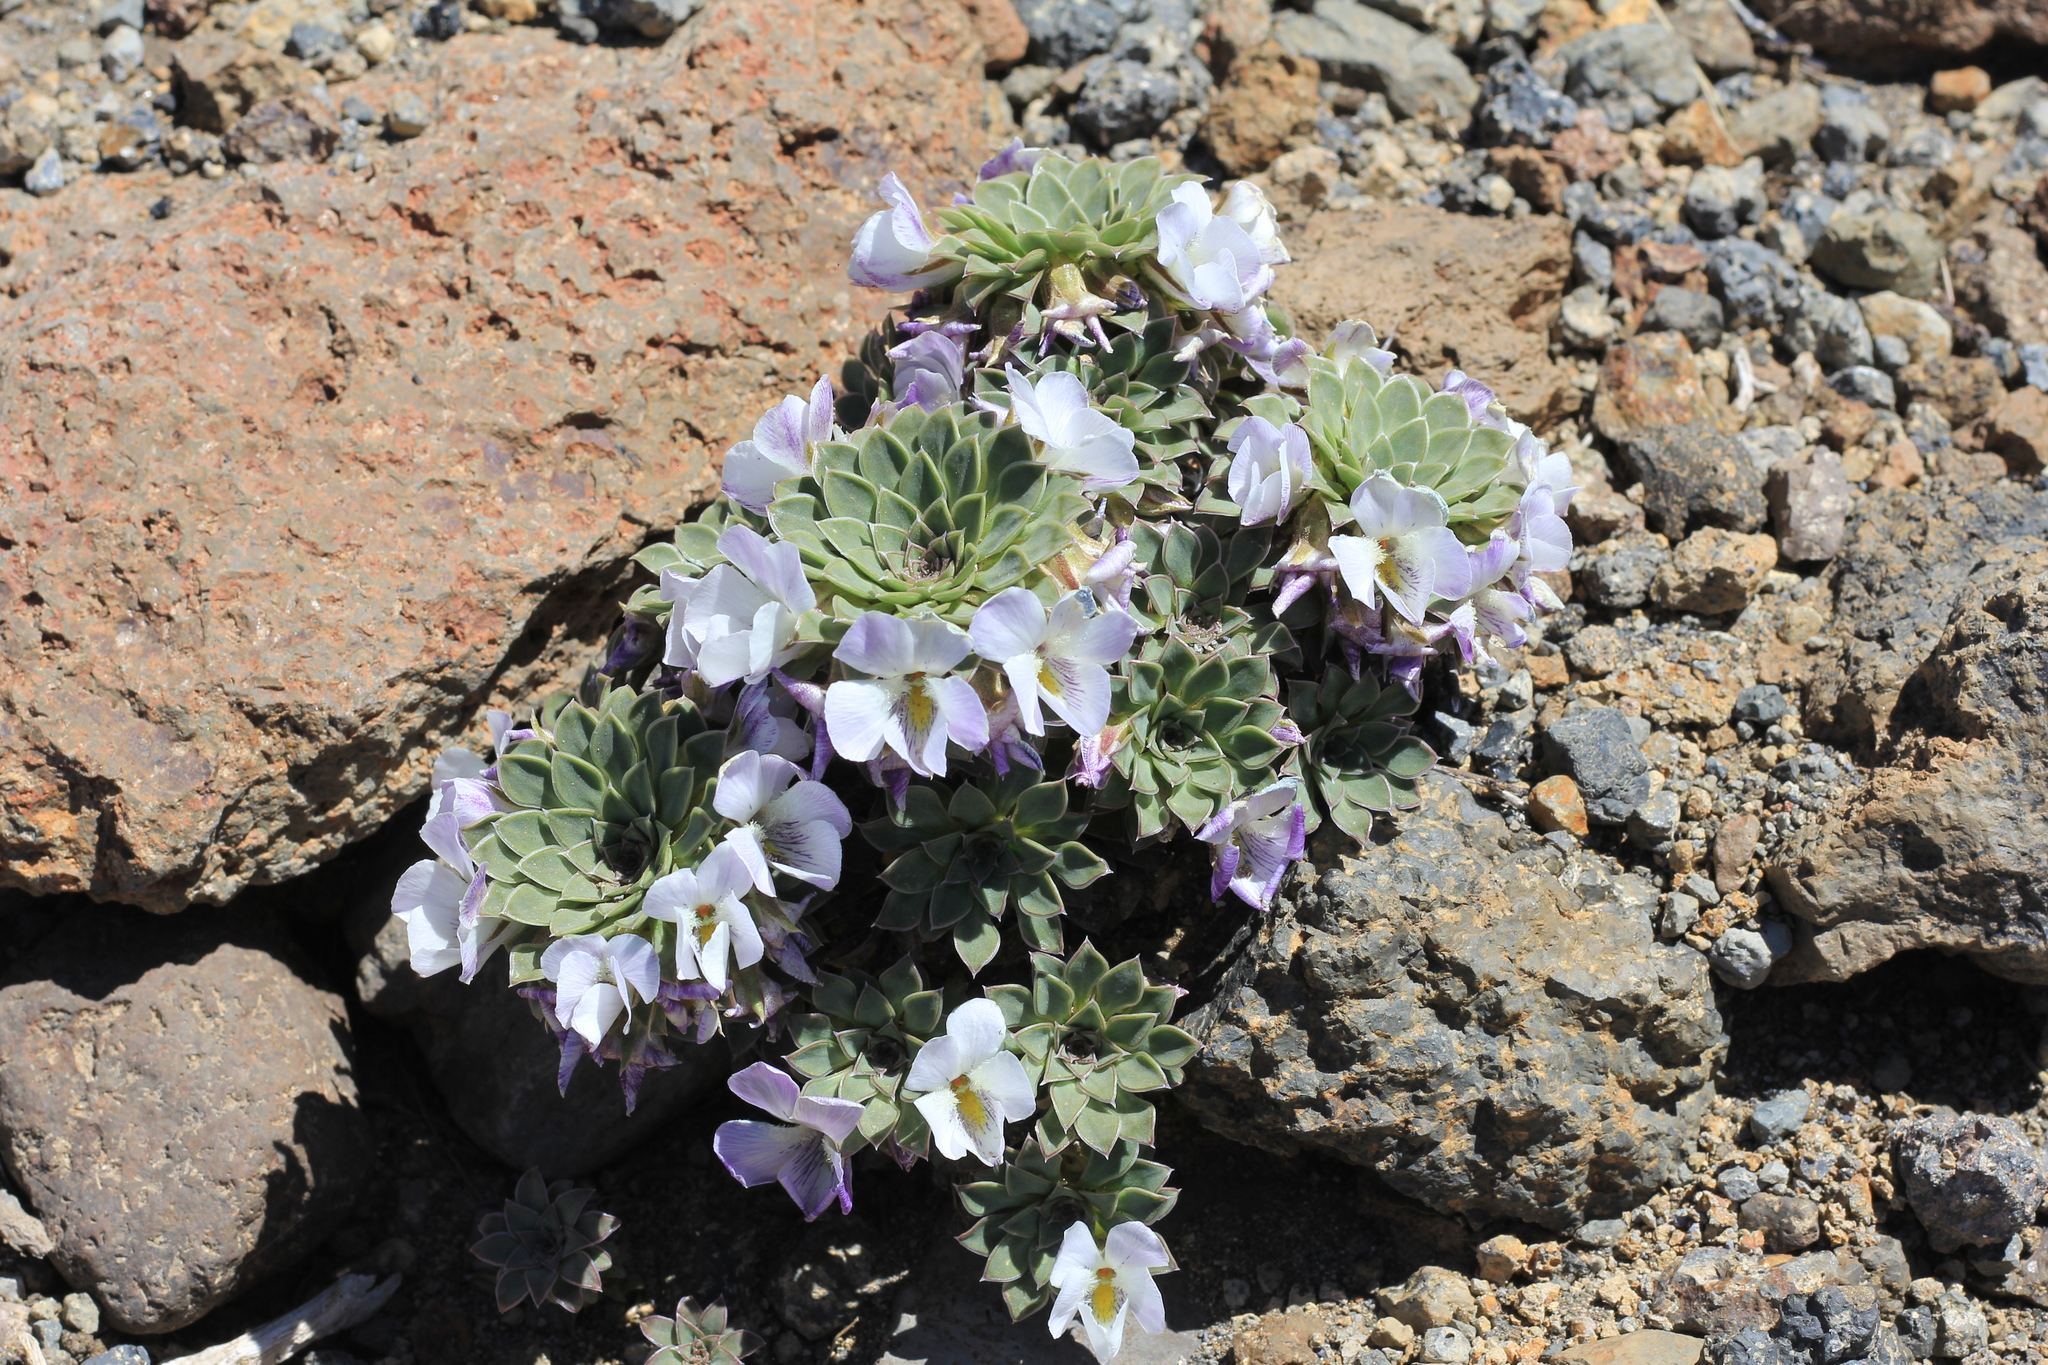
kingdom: Plantae
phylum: Tracheophyta
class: Magnoliopsida
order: Malpighiales
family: Violaceae
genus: Viola
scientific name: Viola blaxlandiae
